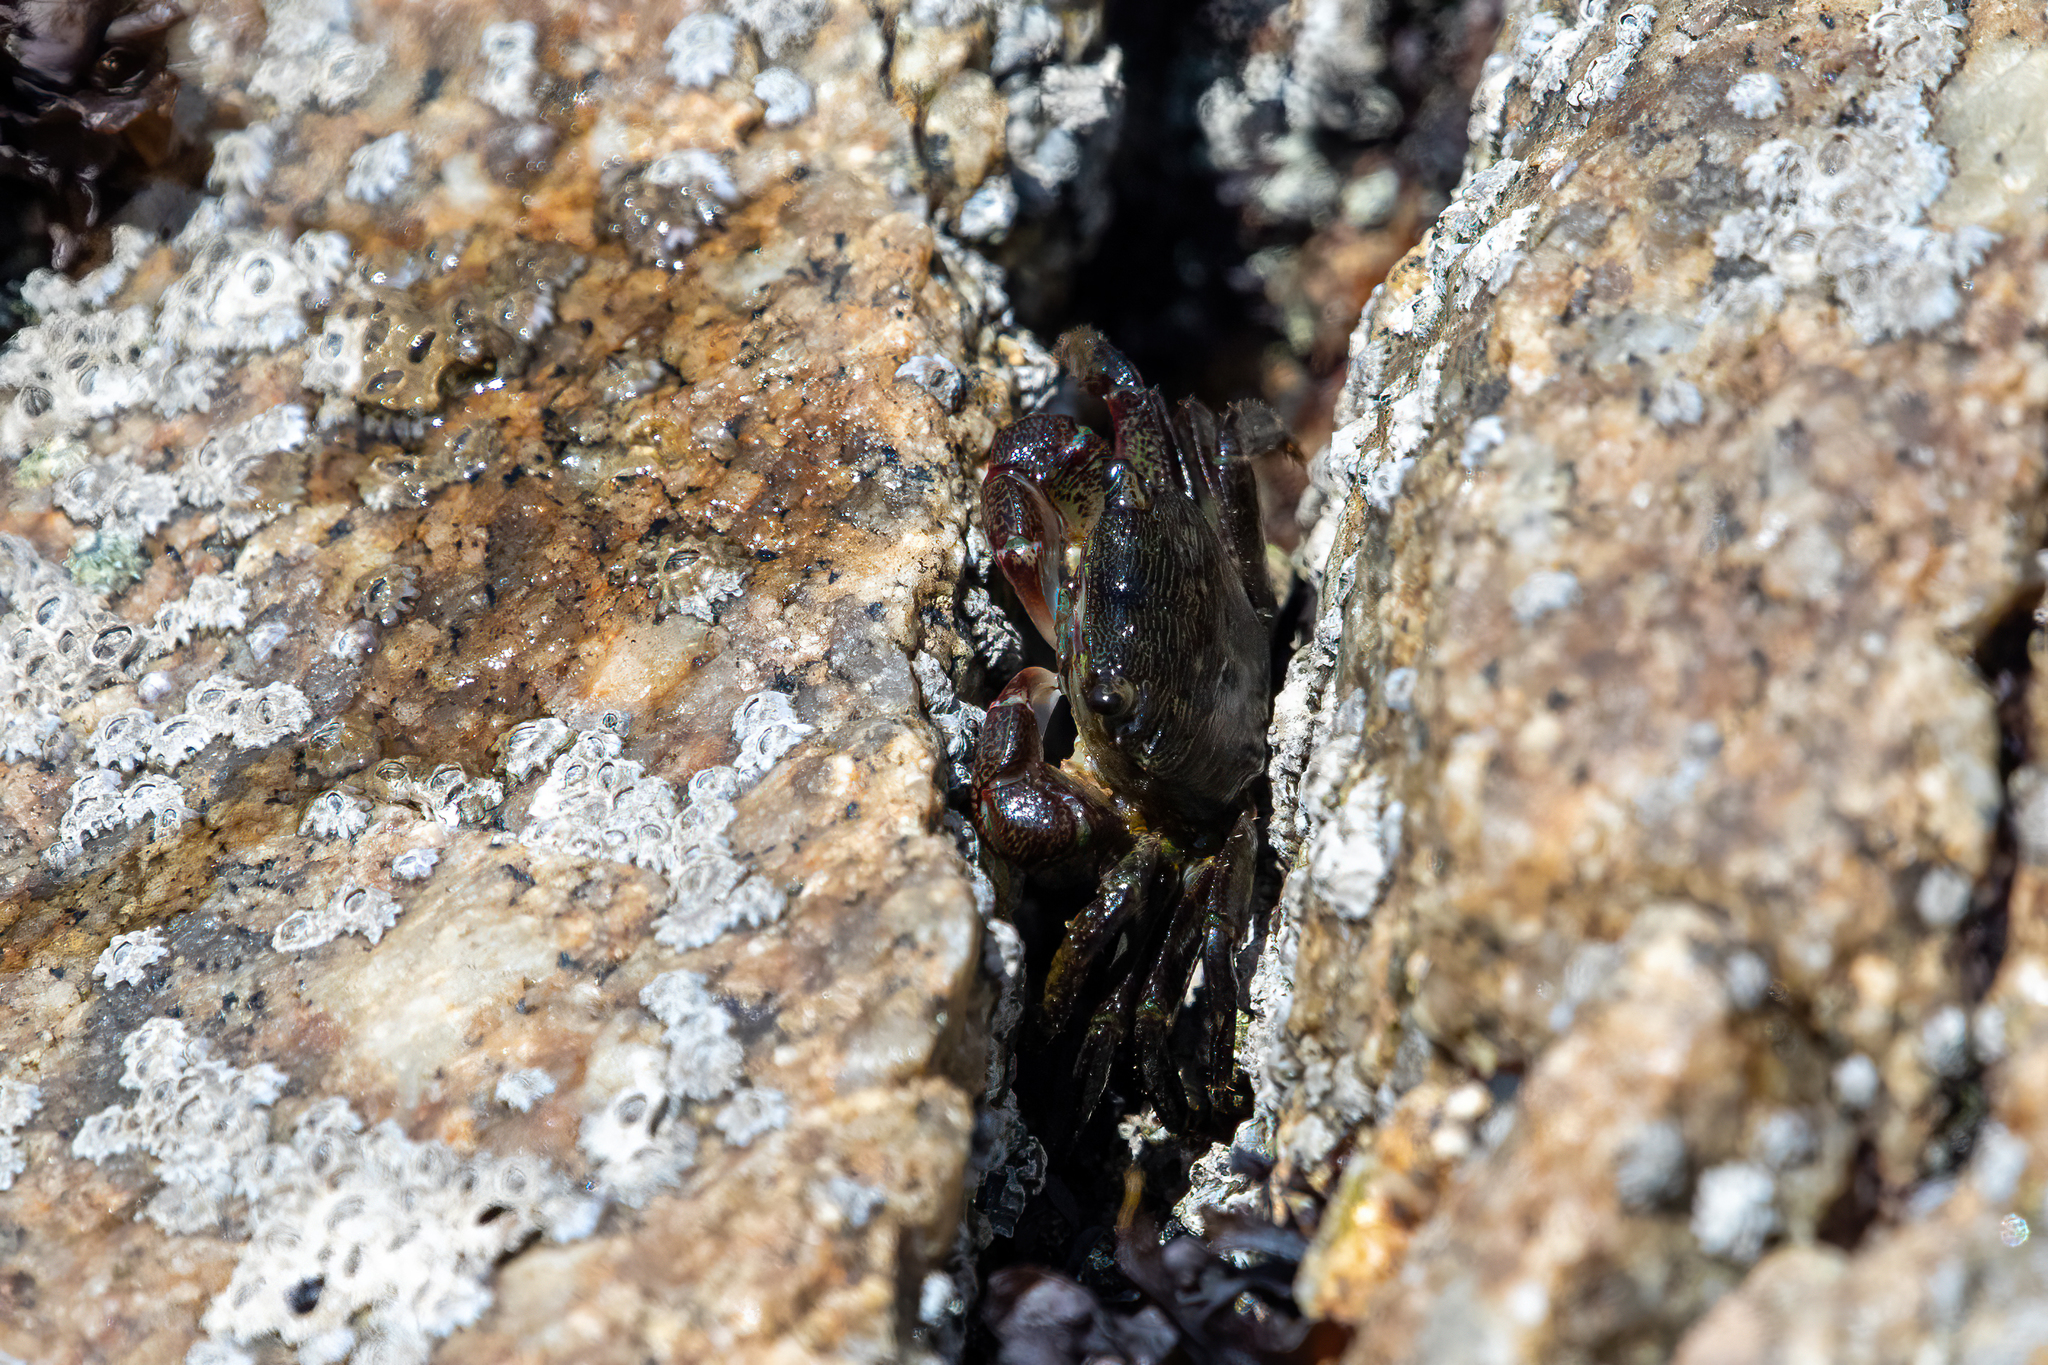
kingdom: Animalia
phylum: Arthropoda
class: Malacostraca
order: Decapoda
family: Grapsidae
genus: Pachygrapsus
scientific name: Pachygrapsus crassipes
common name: Striped shore crab
